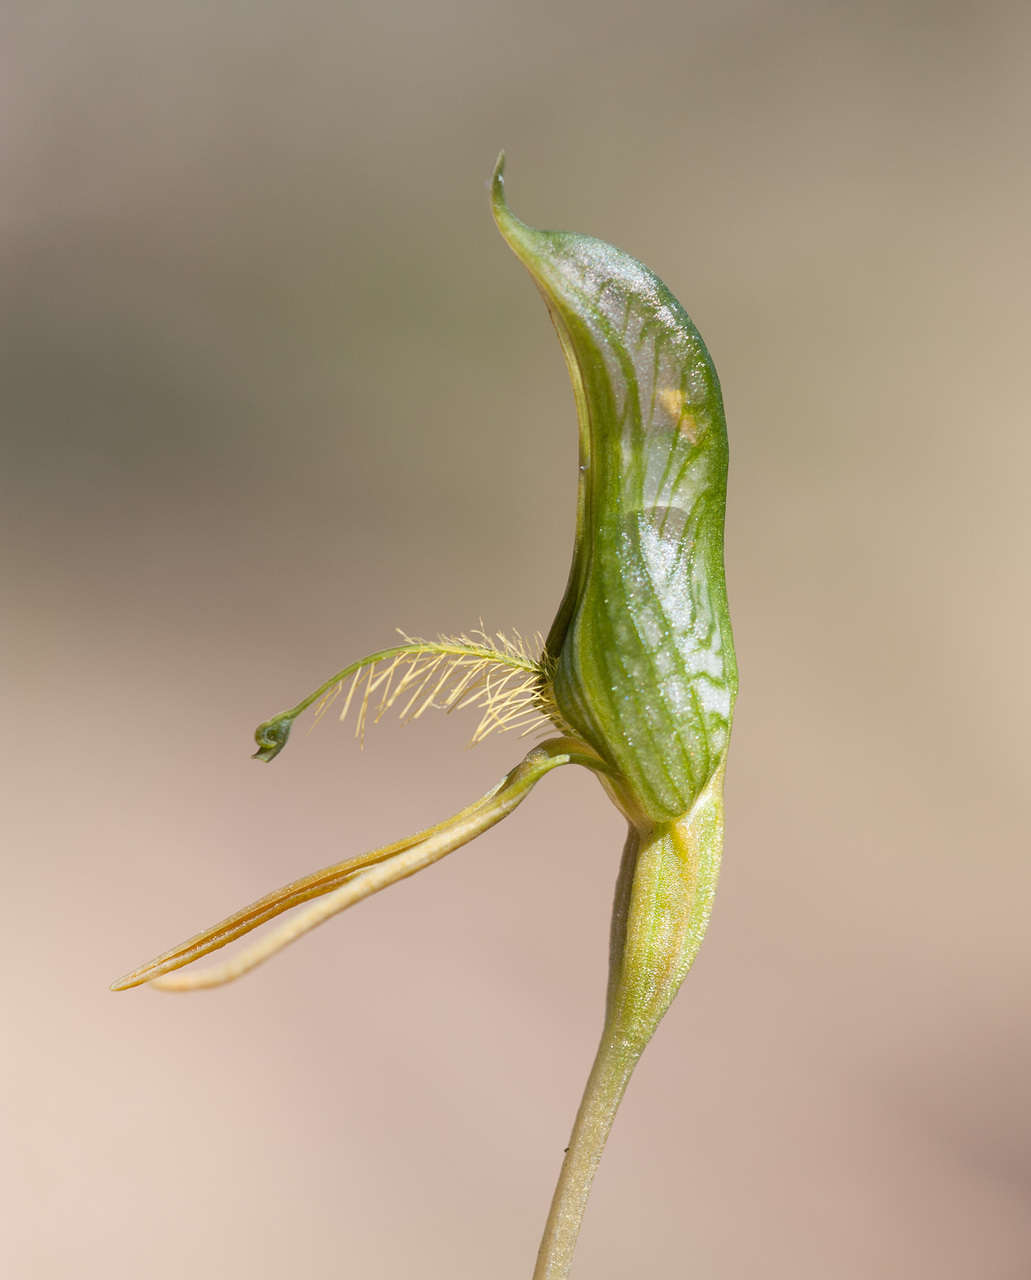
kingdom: Plantae
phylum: Tracheophyta
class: Liliopsida
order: Asparagales
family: Orchidaceae
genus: Pterostylis
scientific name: Pterostylis unicornis
